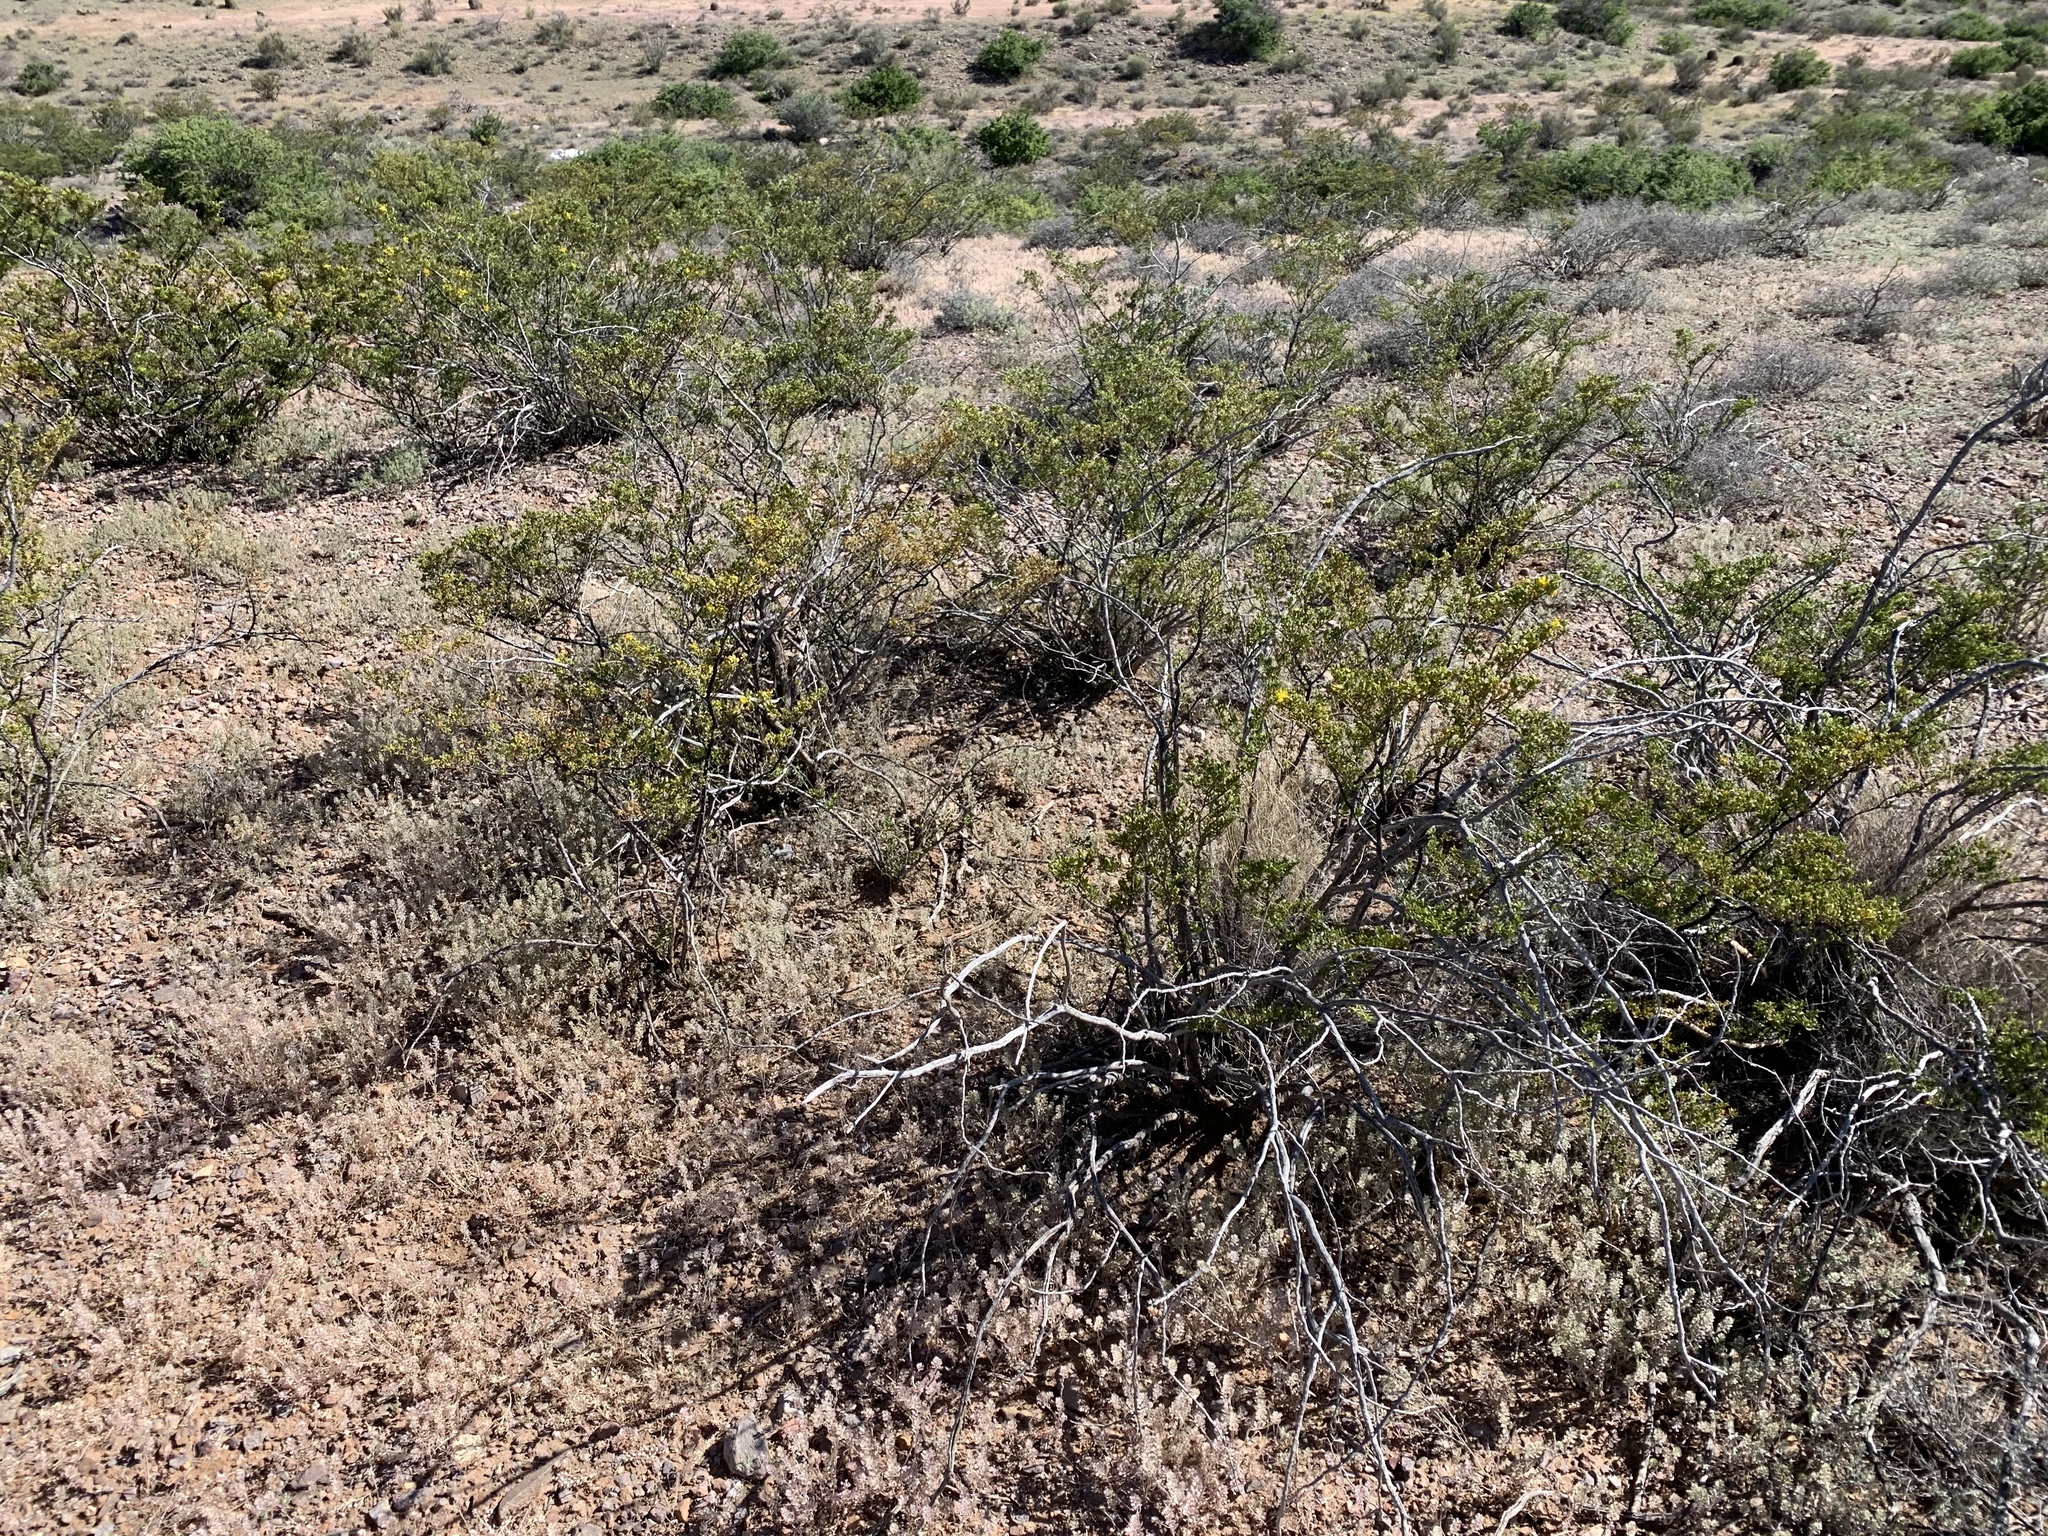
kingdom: Plantae
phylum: Tracheophyta
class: Magnoliopsida
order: Zygophyllales
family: Zygophyllaceae
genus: Larrea
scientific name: Larrea tridentata
